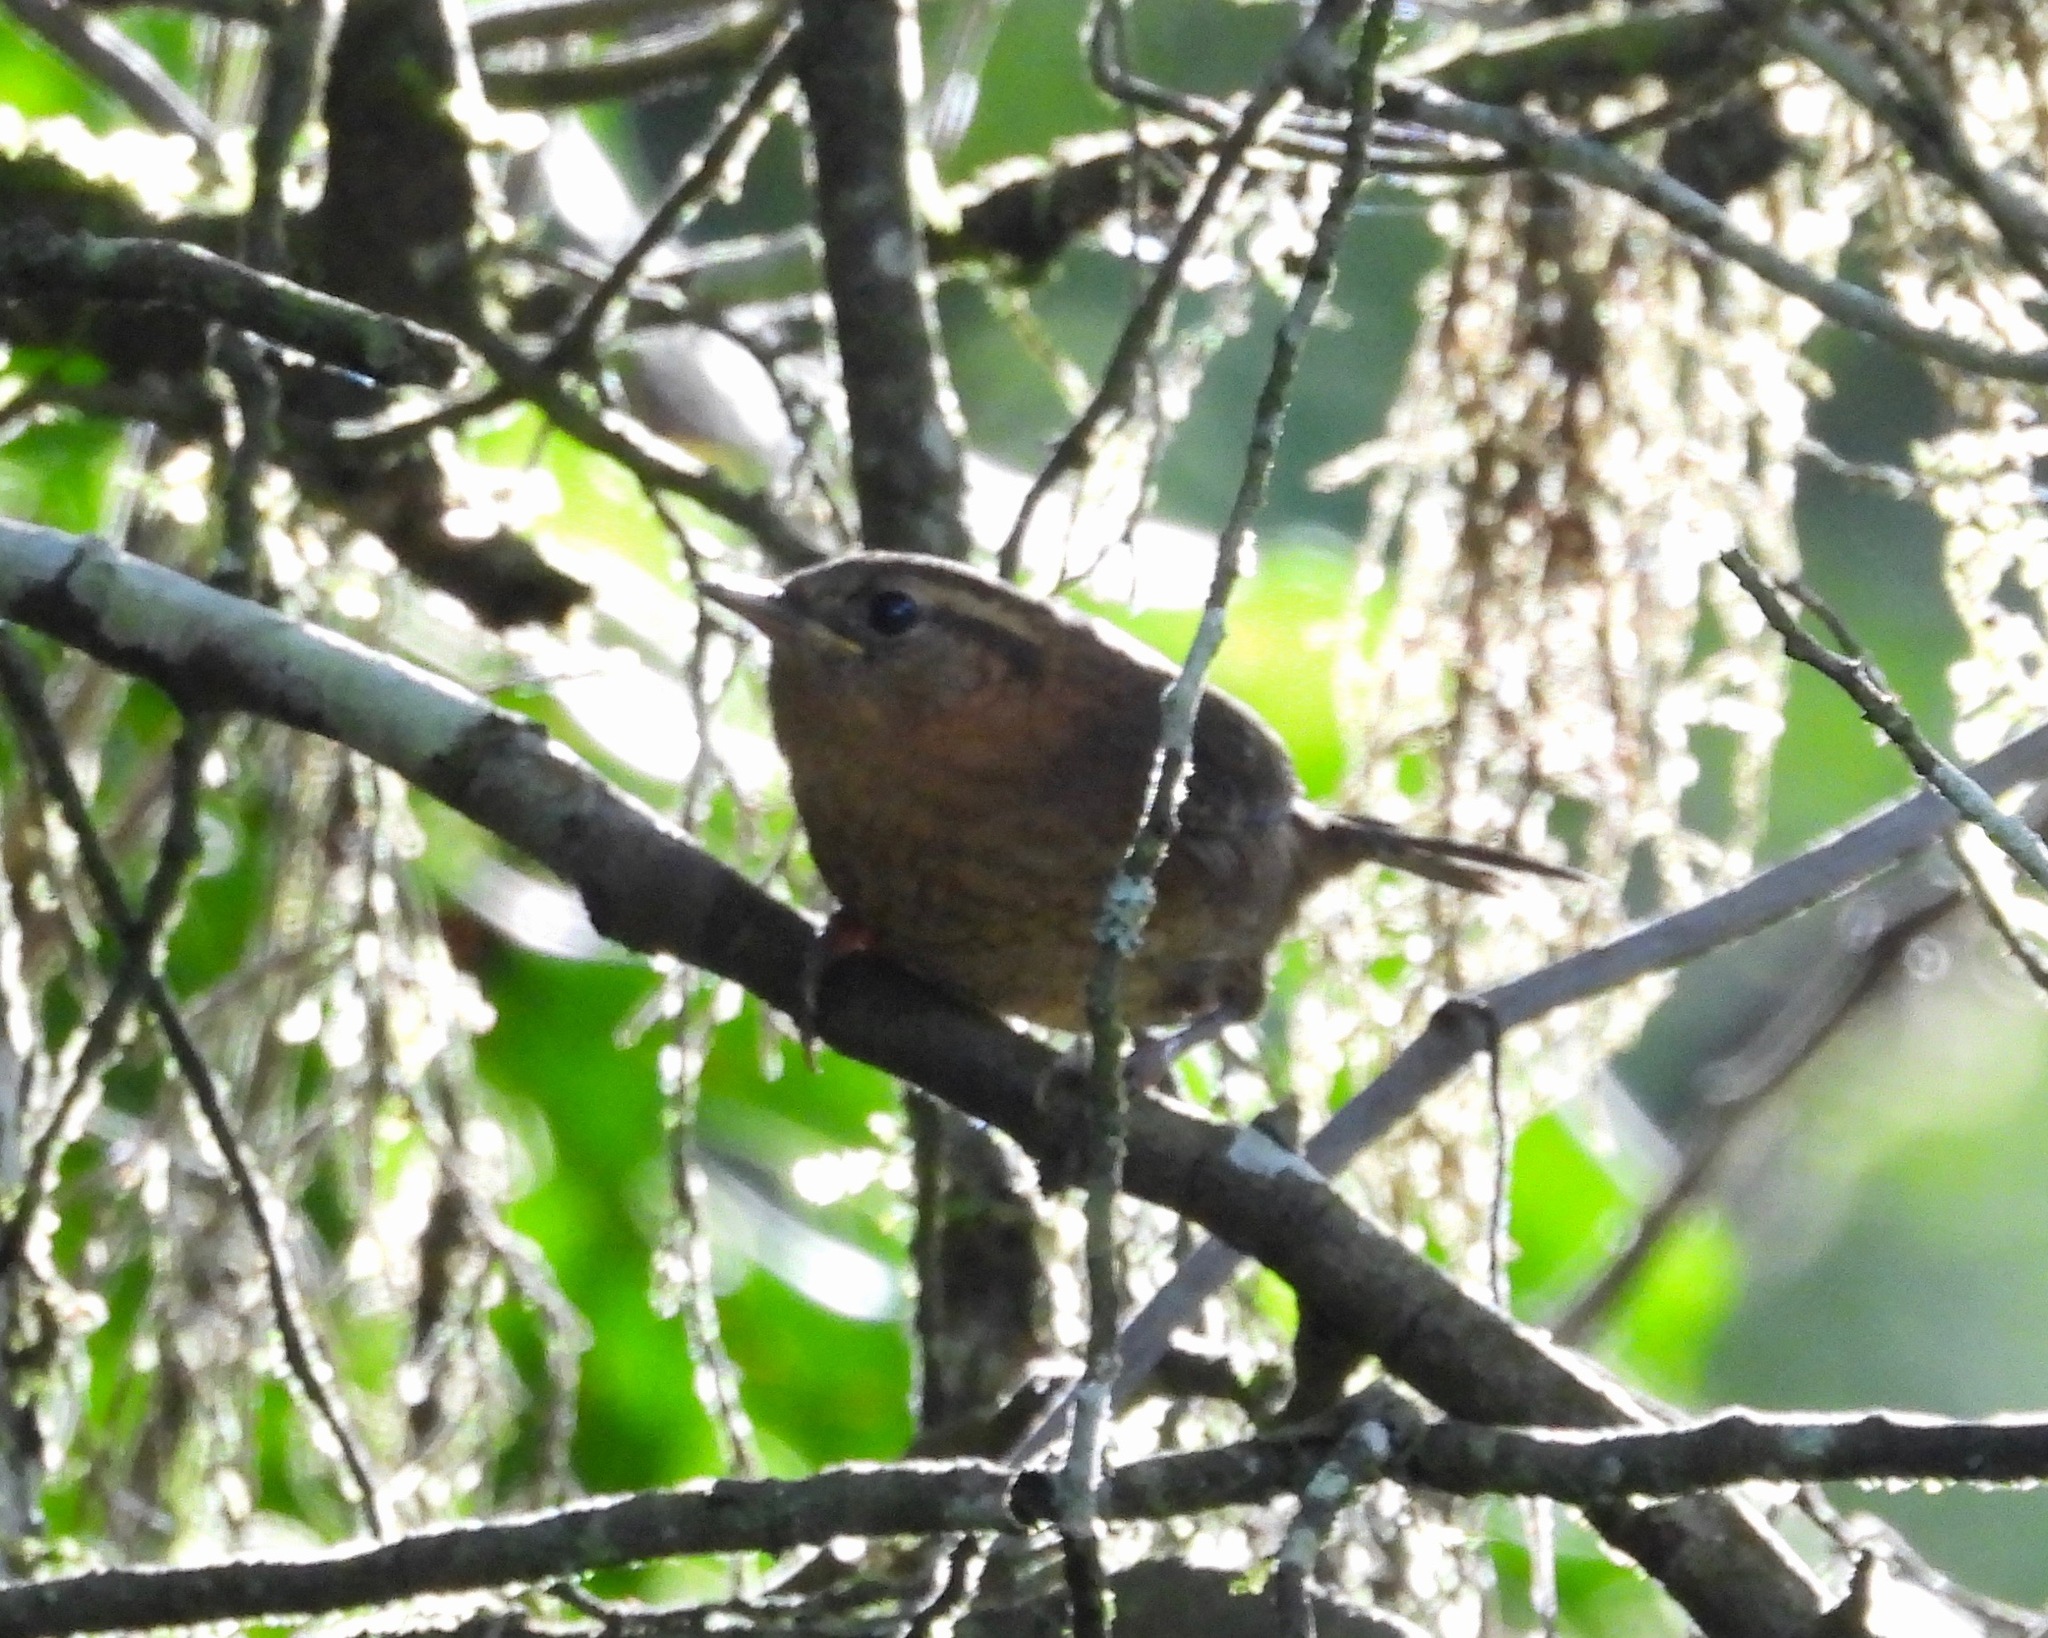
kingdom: Animalia
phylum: Chordata
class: Aves
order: Passeriformes
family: Troglodytidae
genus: Troglodytes
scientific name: Troglodytes rufociliatus
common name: Rufous-browed wren
